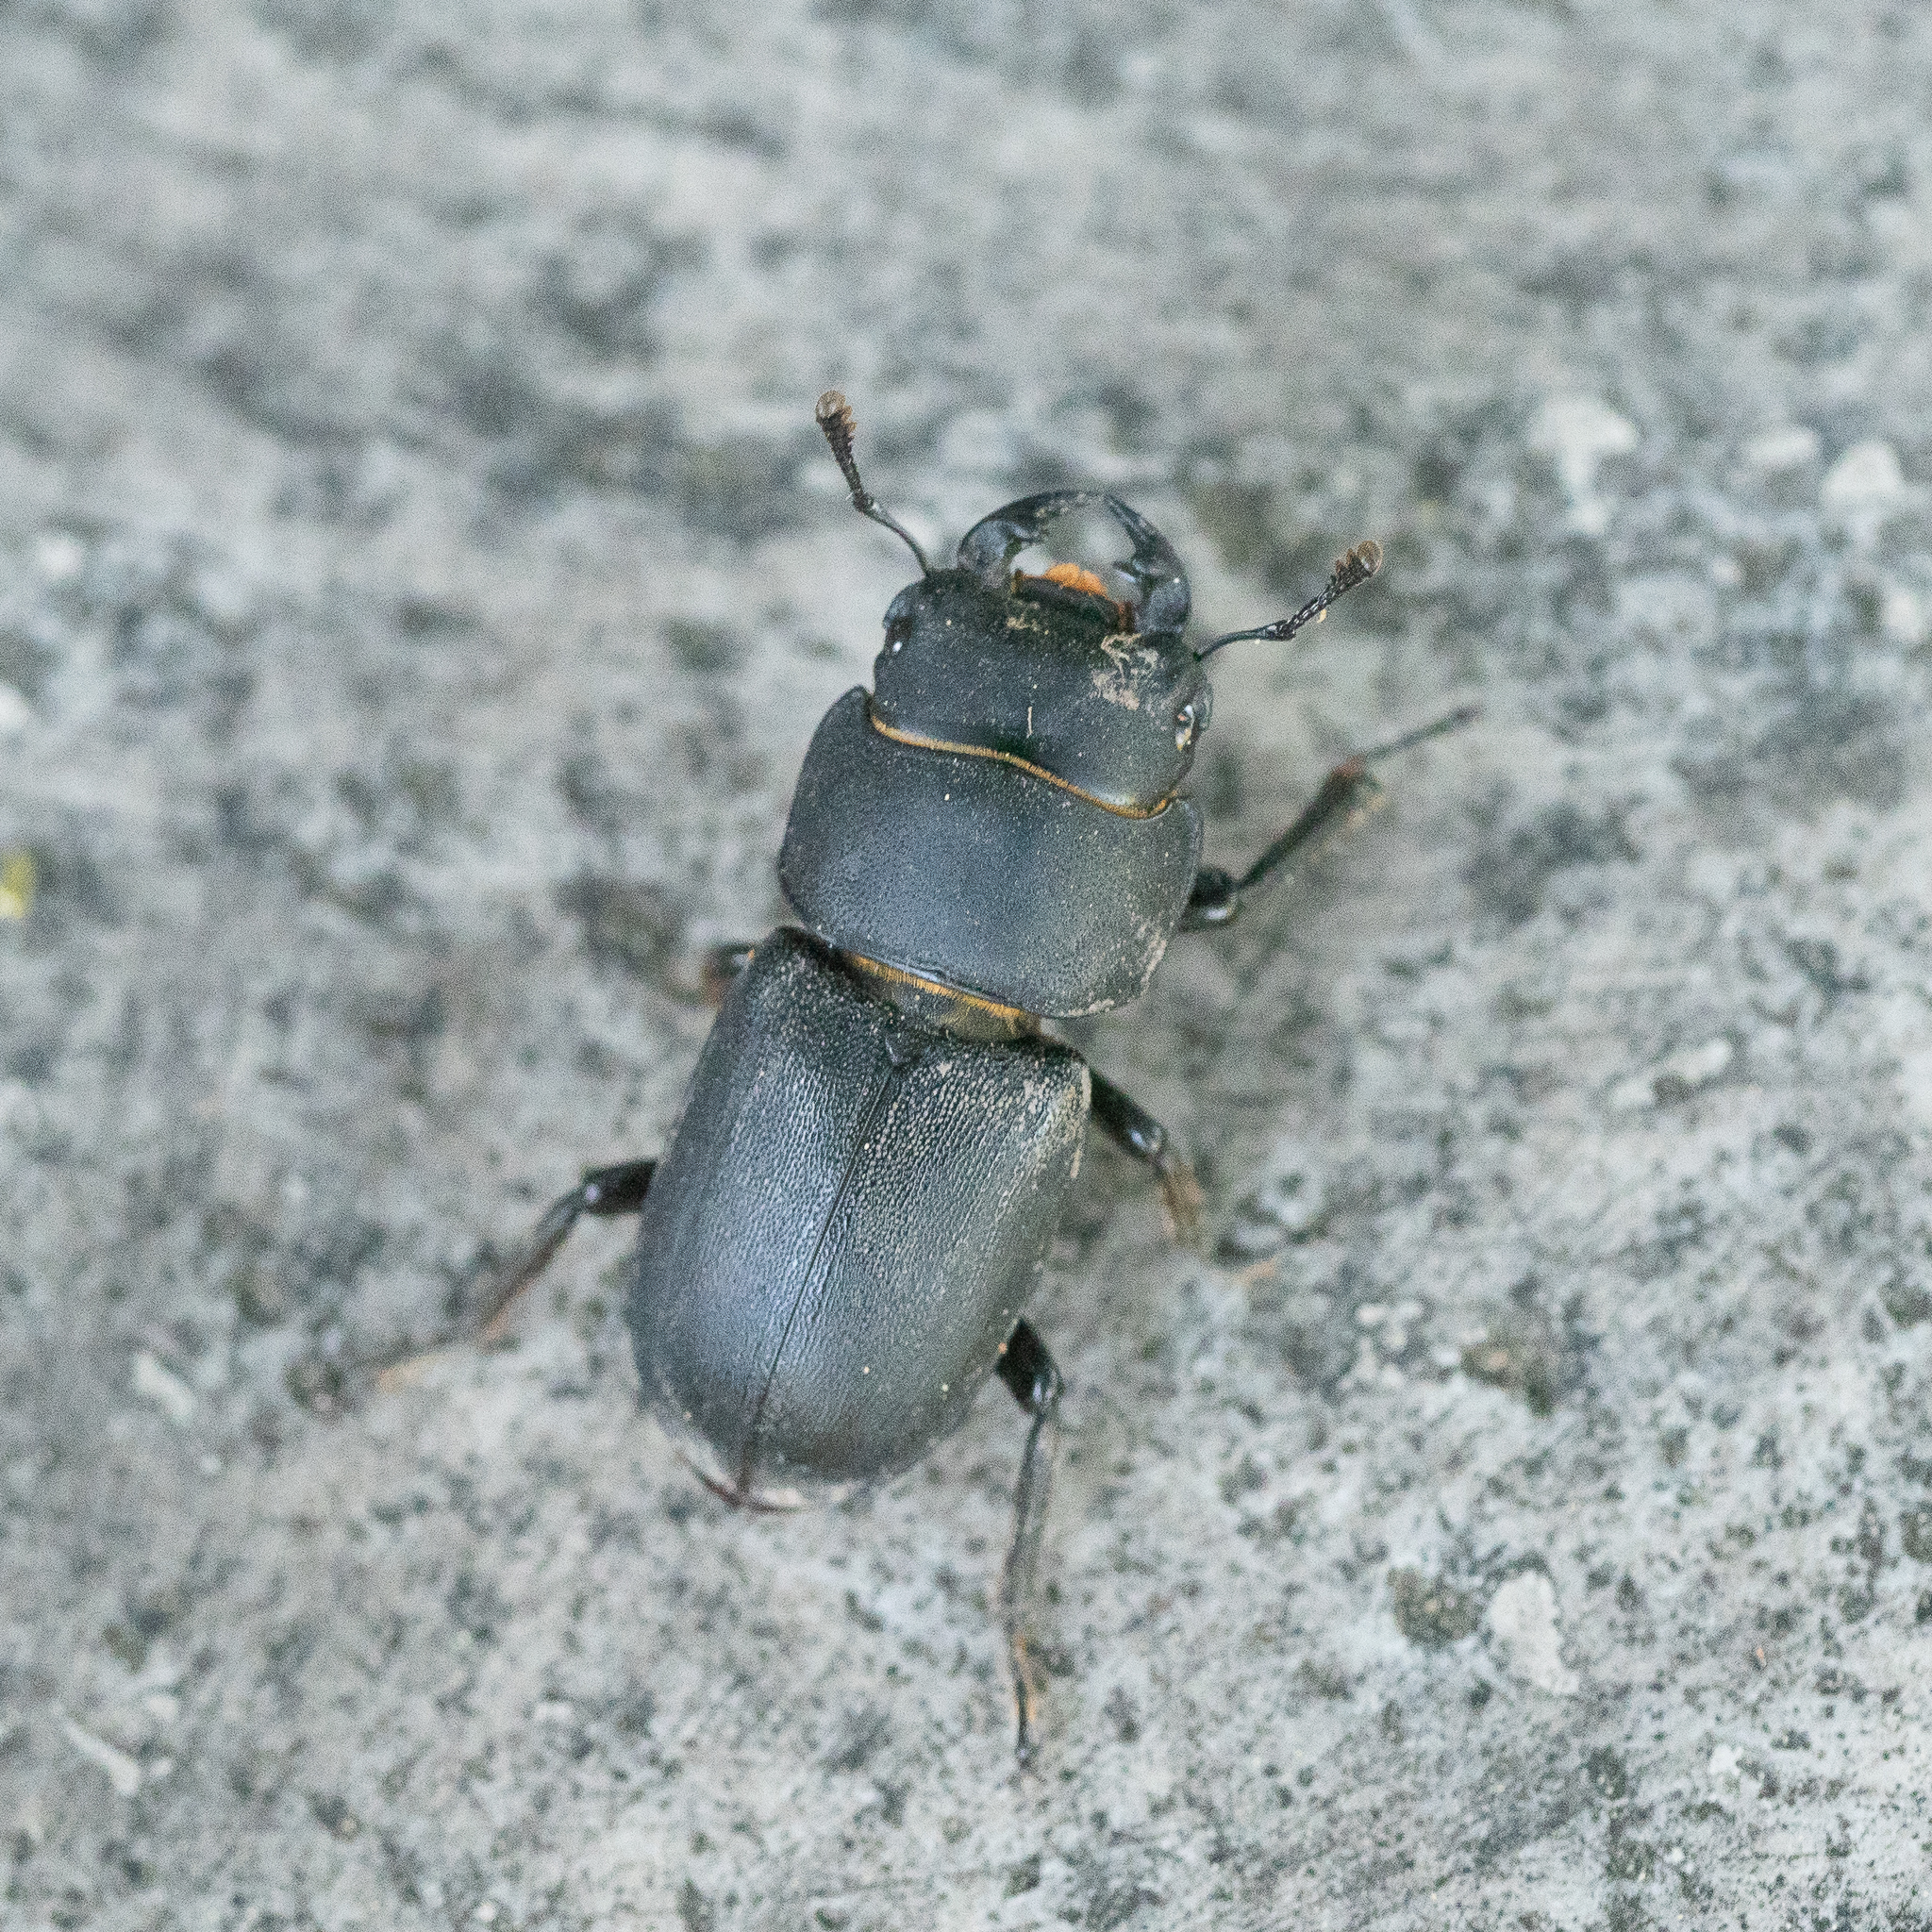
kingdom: Animalia
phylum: Arthropoda
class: Insecta
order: Coleoptera
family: Lucanidae
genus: Dorcus
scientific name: Dorcus parallelipipedus
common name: Lesser stag beetle
